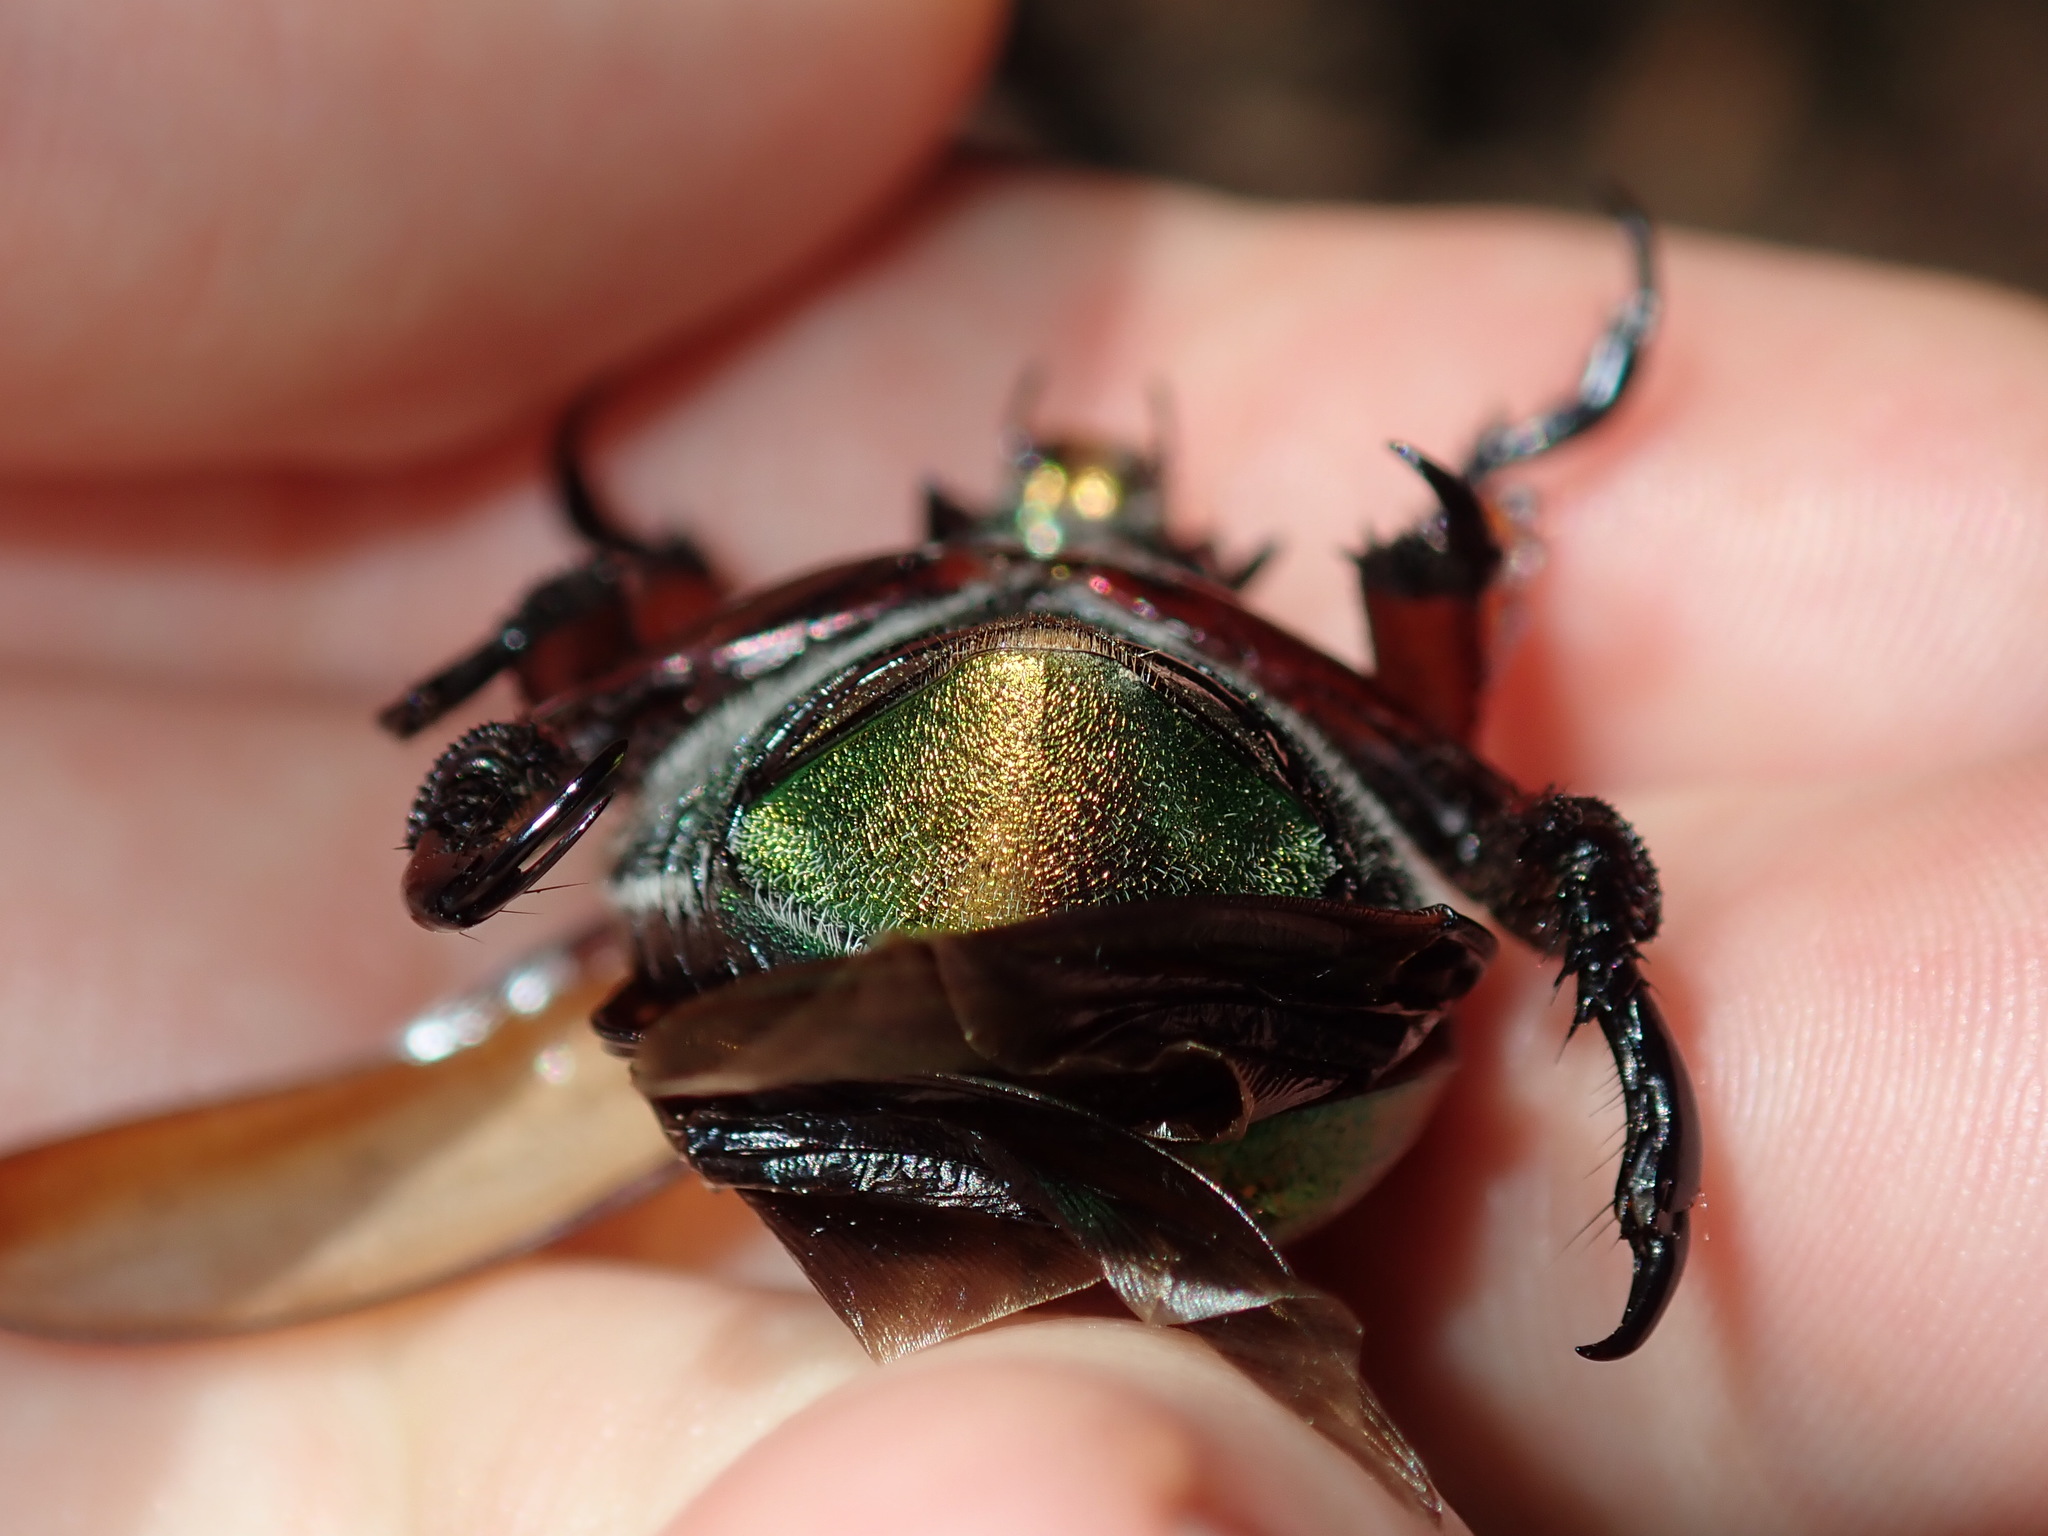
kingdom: Animalia
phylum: Arthropoda
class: Insecta
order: Coleoptera
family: Scarabaeidae
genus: Anoplognathus
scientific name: Anoplognathus viridiaeneus
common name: King christmas beetle
